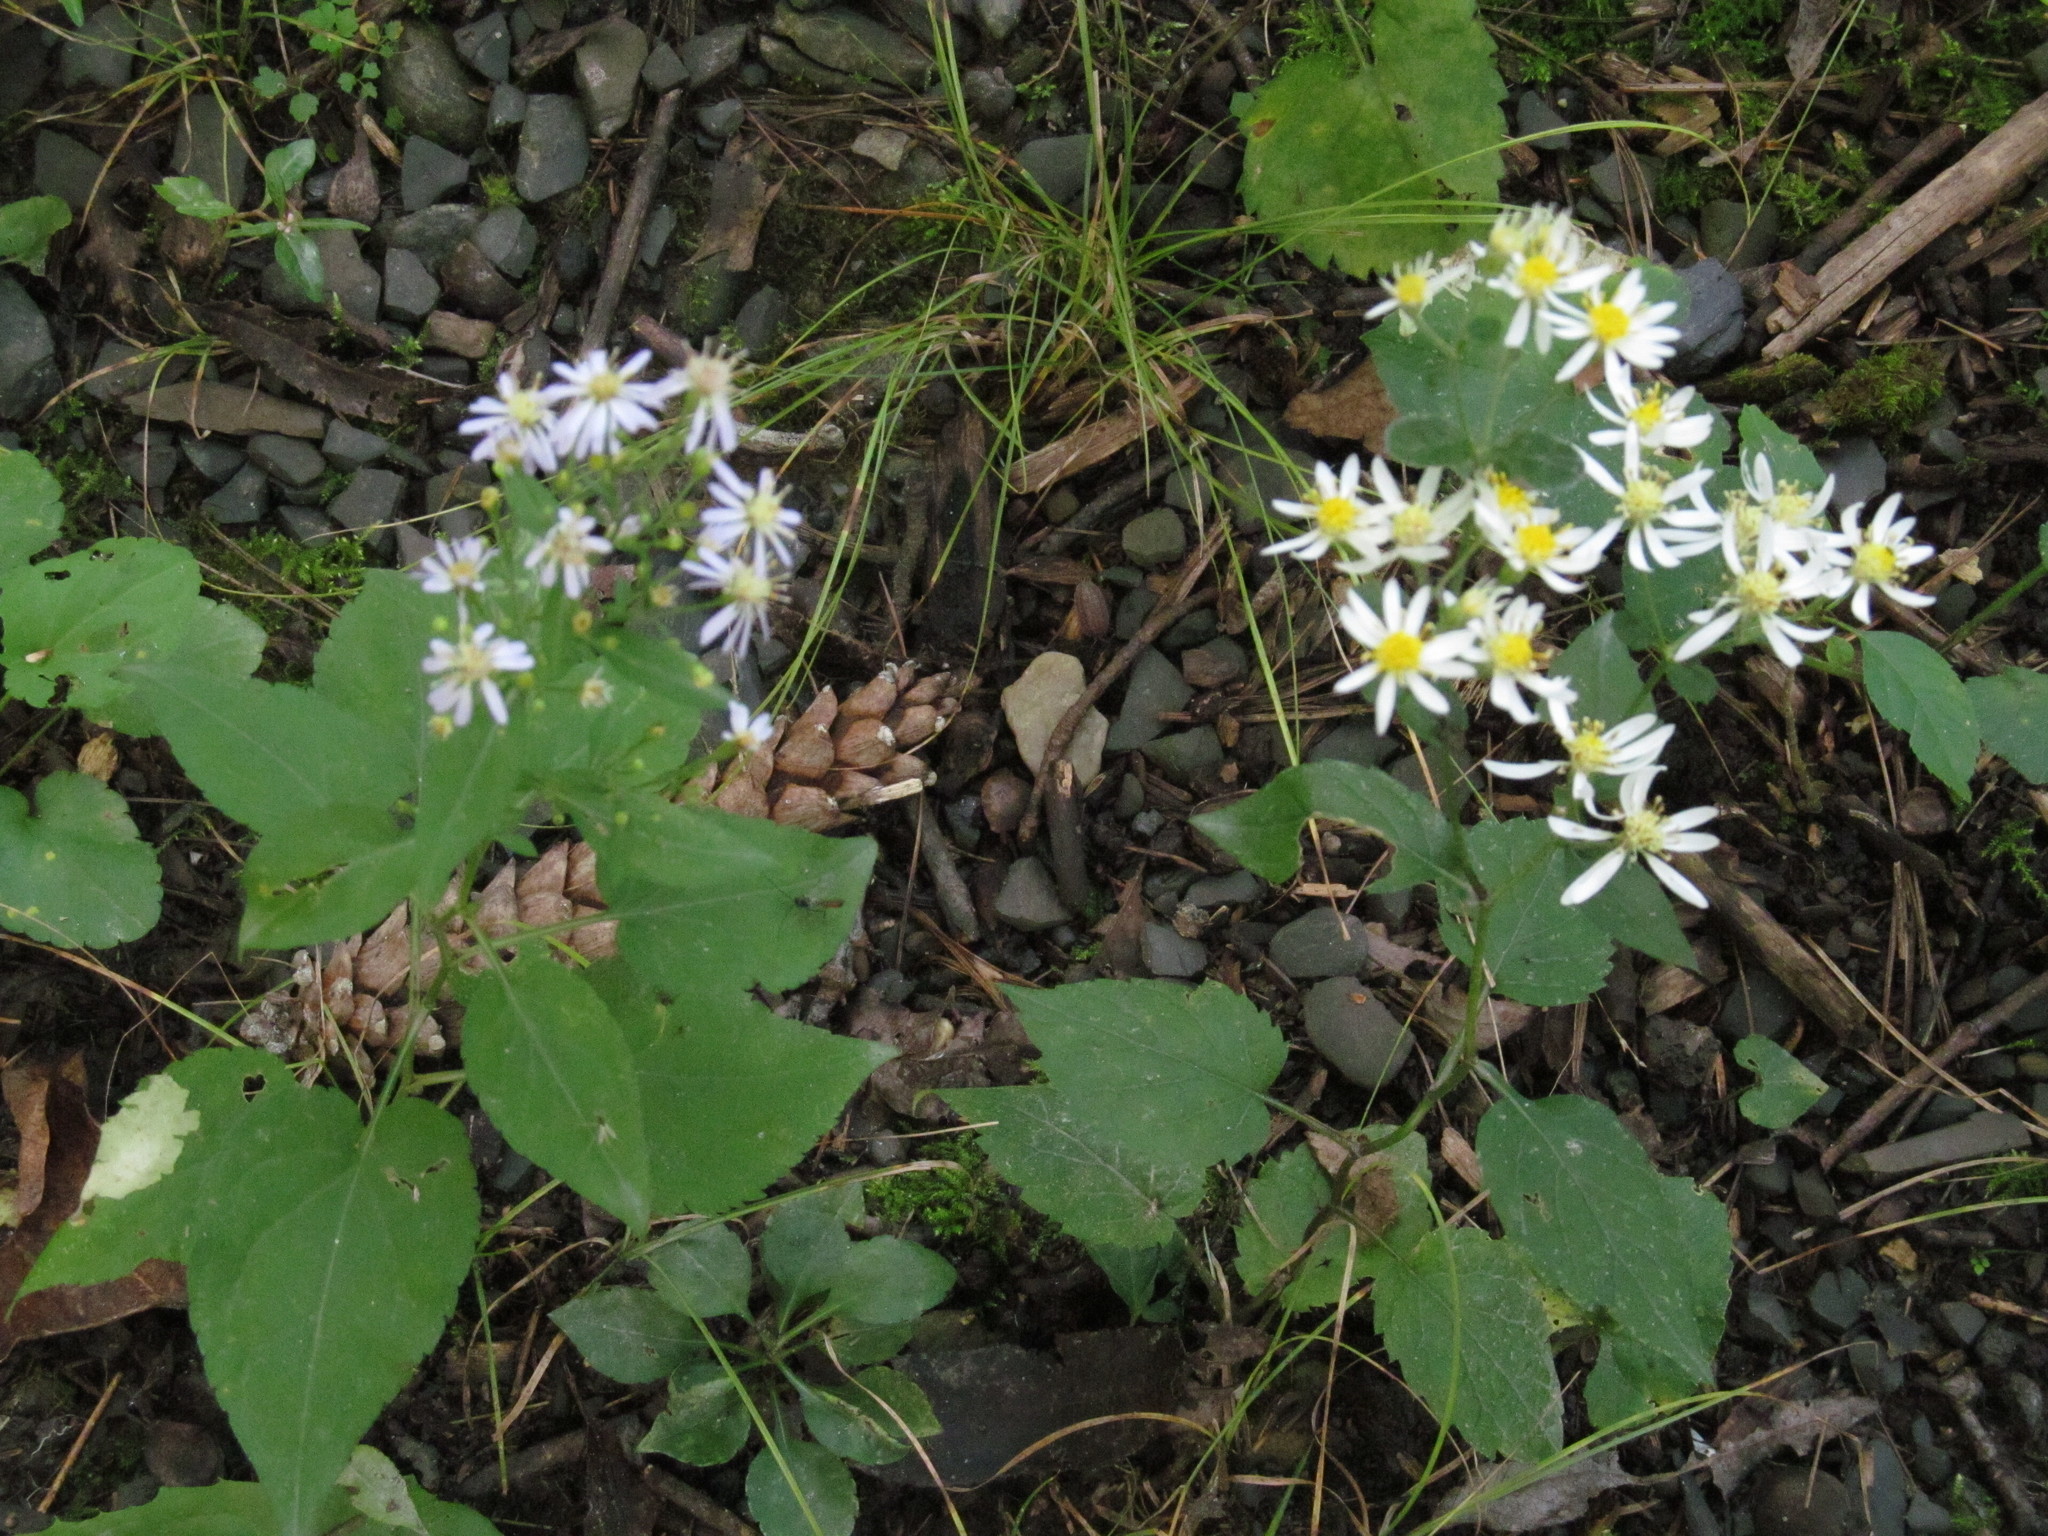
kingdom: Plantae
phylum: Tracheophyta
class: Magnoliopsida
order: Asterales
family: Asteraceae
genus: Eurybia
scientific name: Eurybia divaricata
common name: White wood aster
